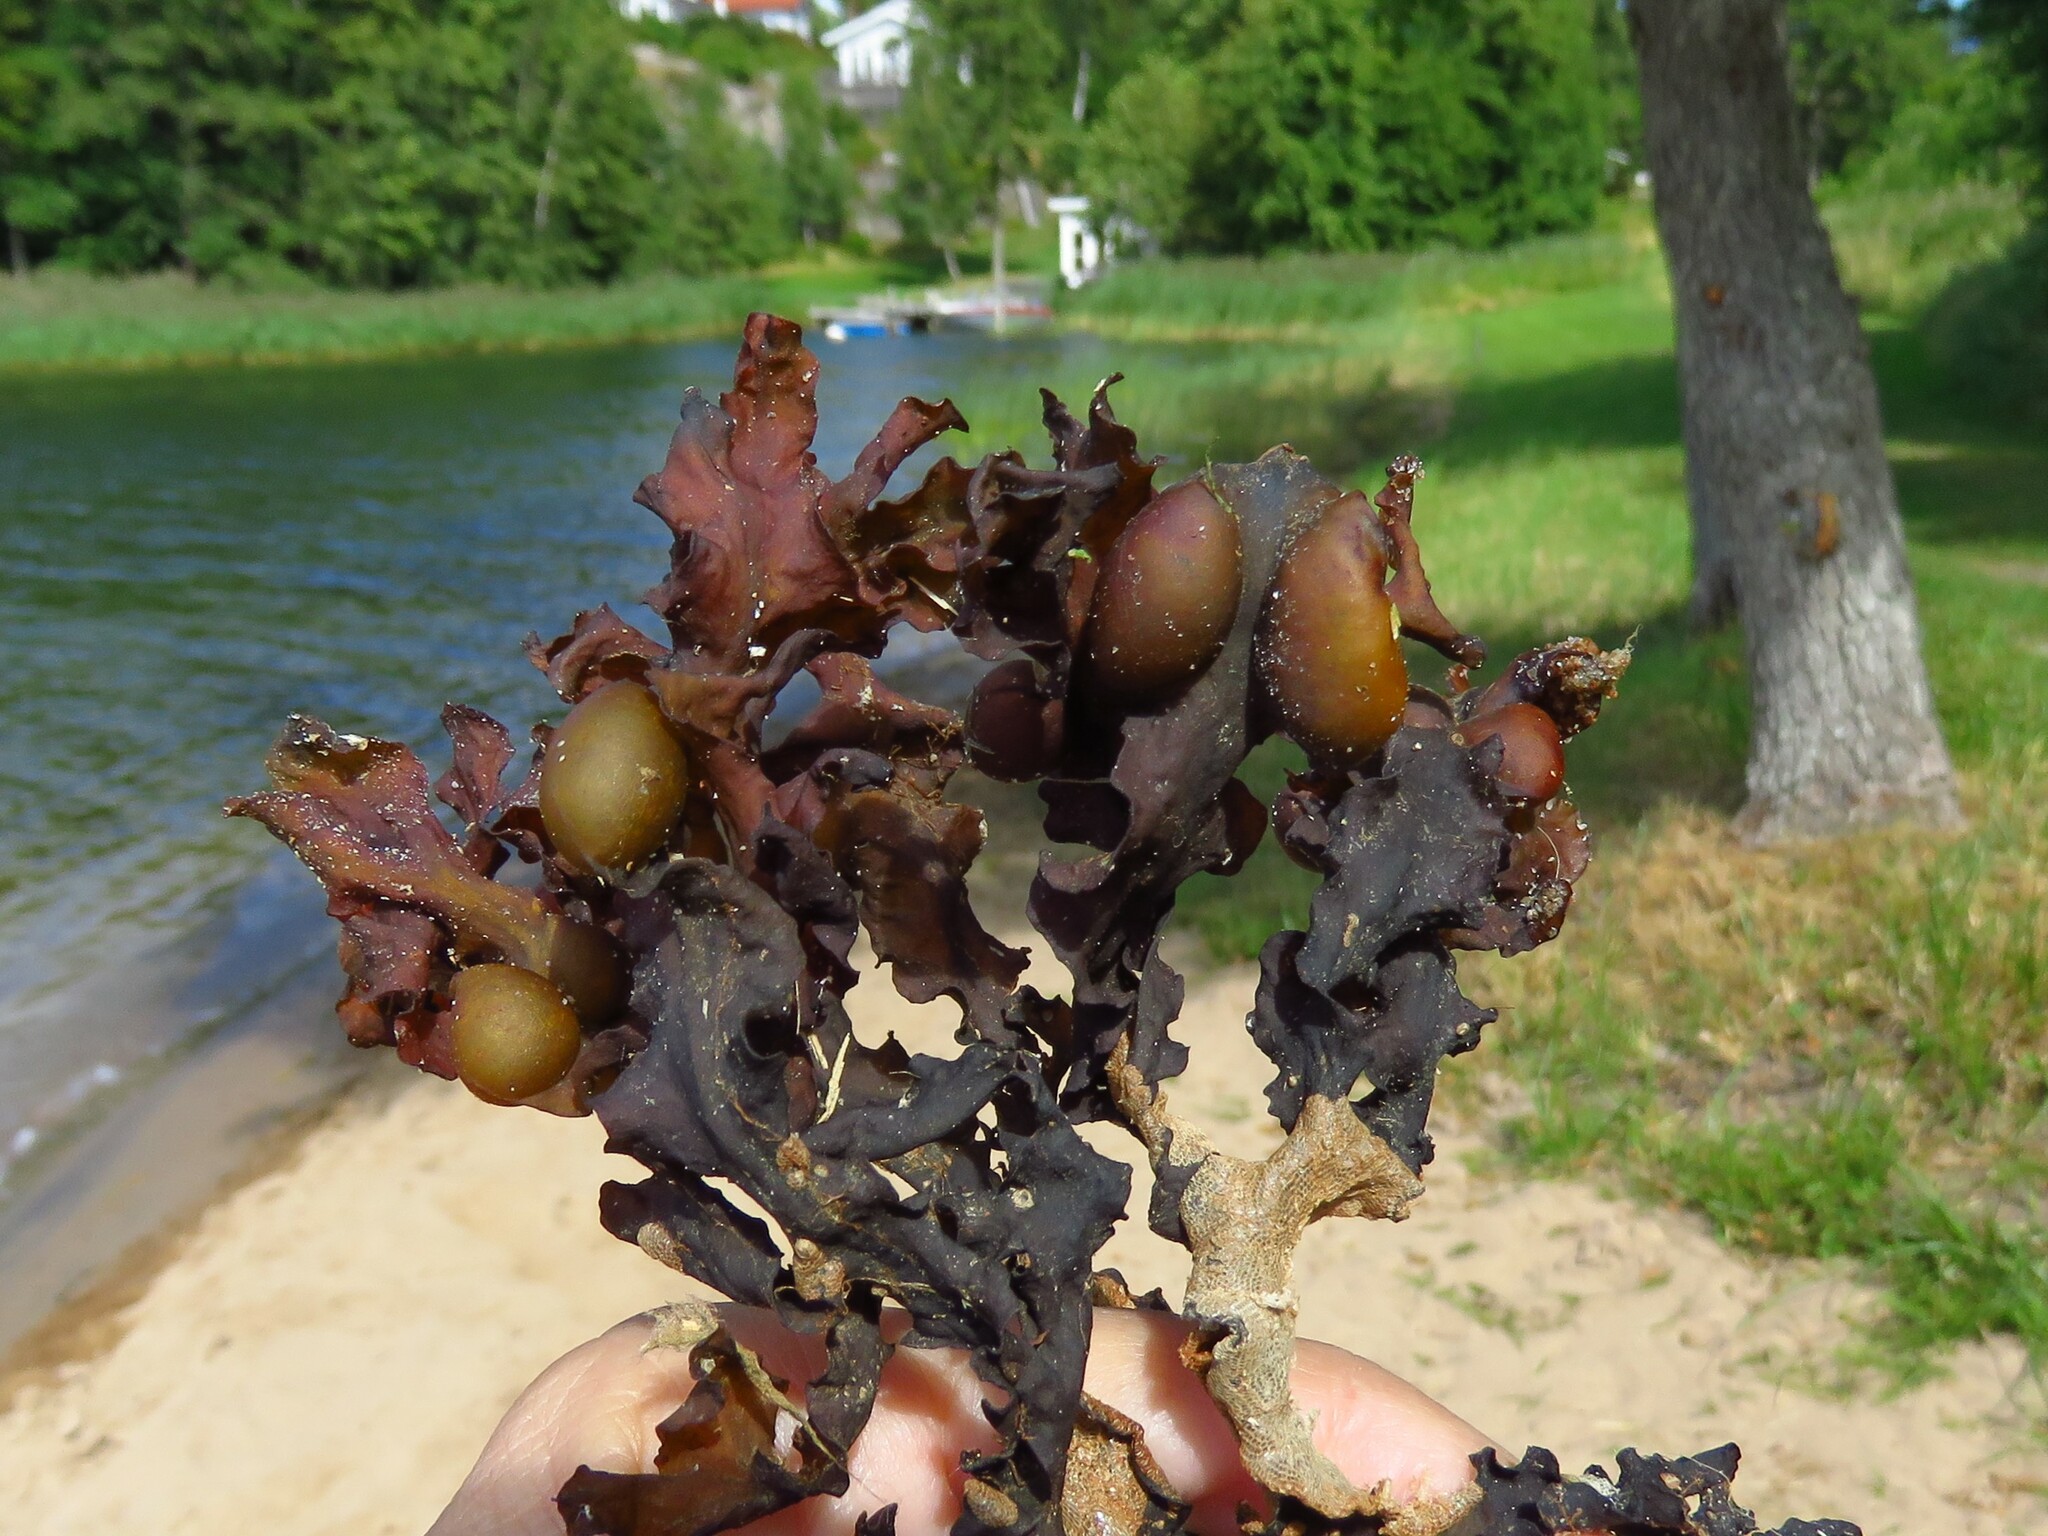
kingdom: Chromista
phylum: Ochrophyta
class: Phaeophyceae
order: Fucales
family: Fucaceae
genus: Fucus
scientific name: Fucus vesiculosus
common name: Bladder wrack
